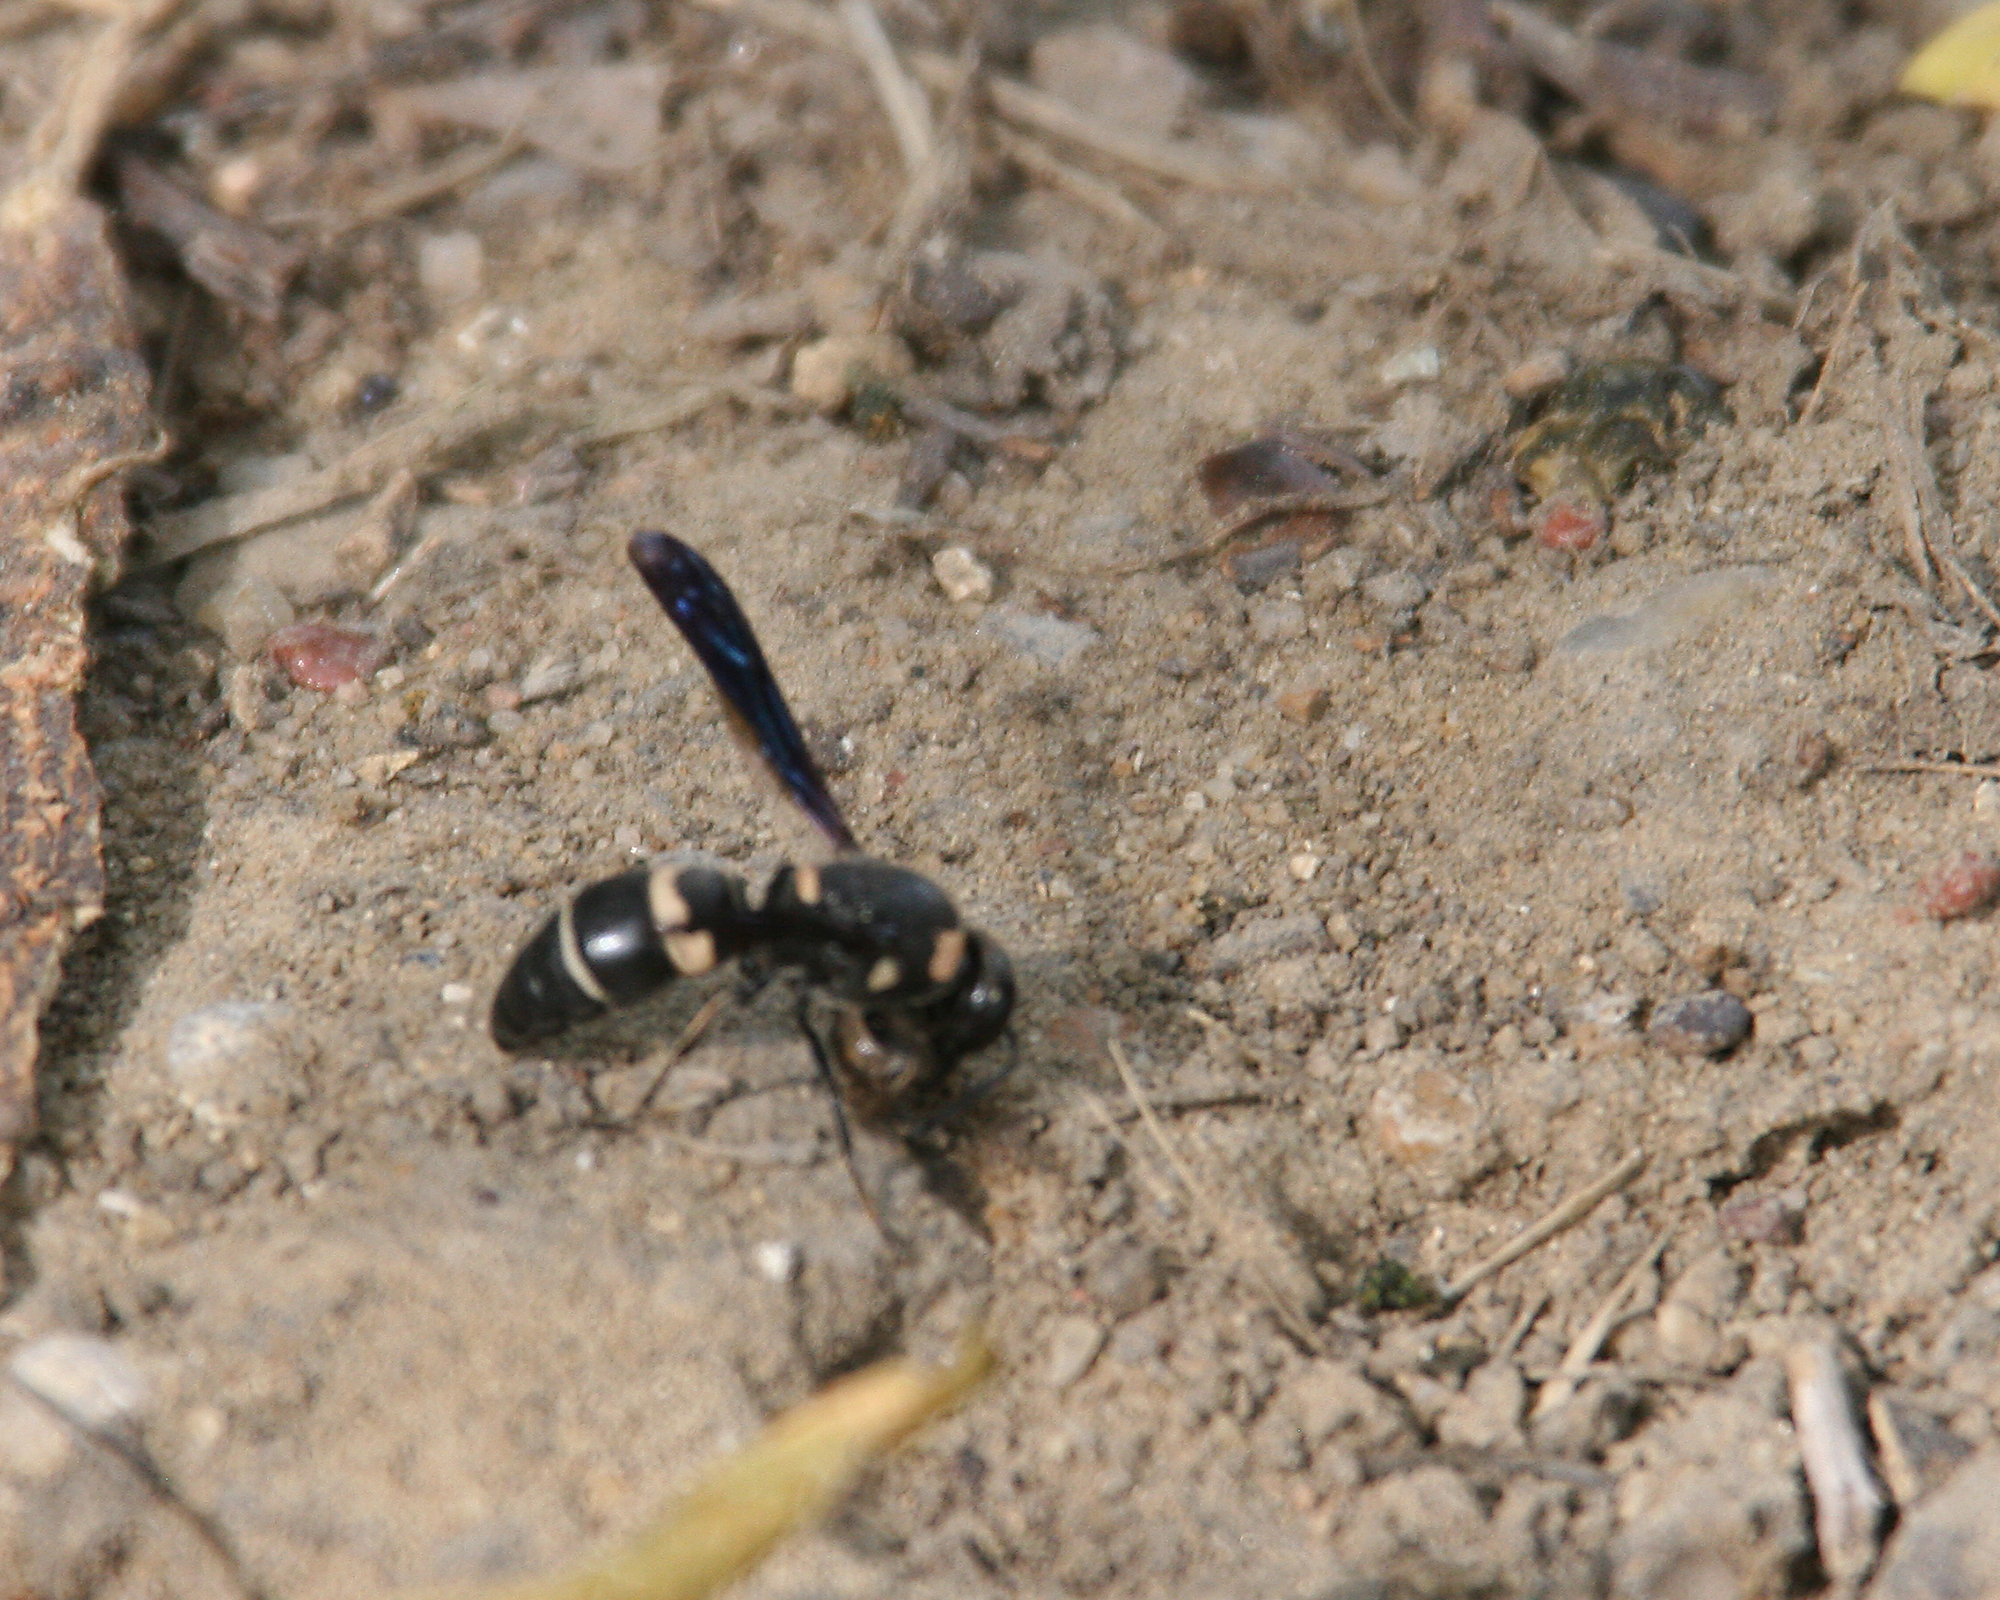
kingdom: Animalia
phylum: Arthropoda
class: Insecta
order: Hymenoptera
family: Eumenidae
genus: Euodynerus
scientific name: Euodynerus megaera
